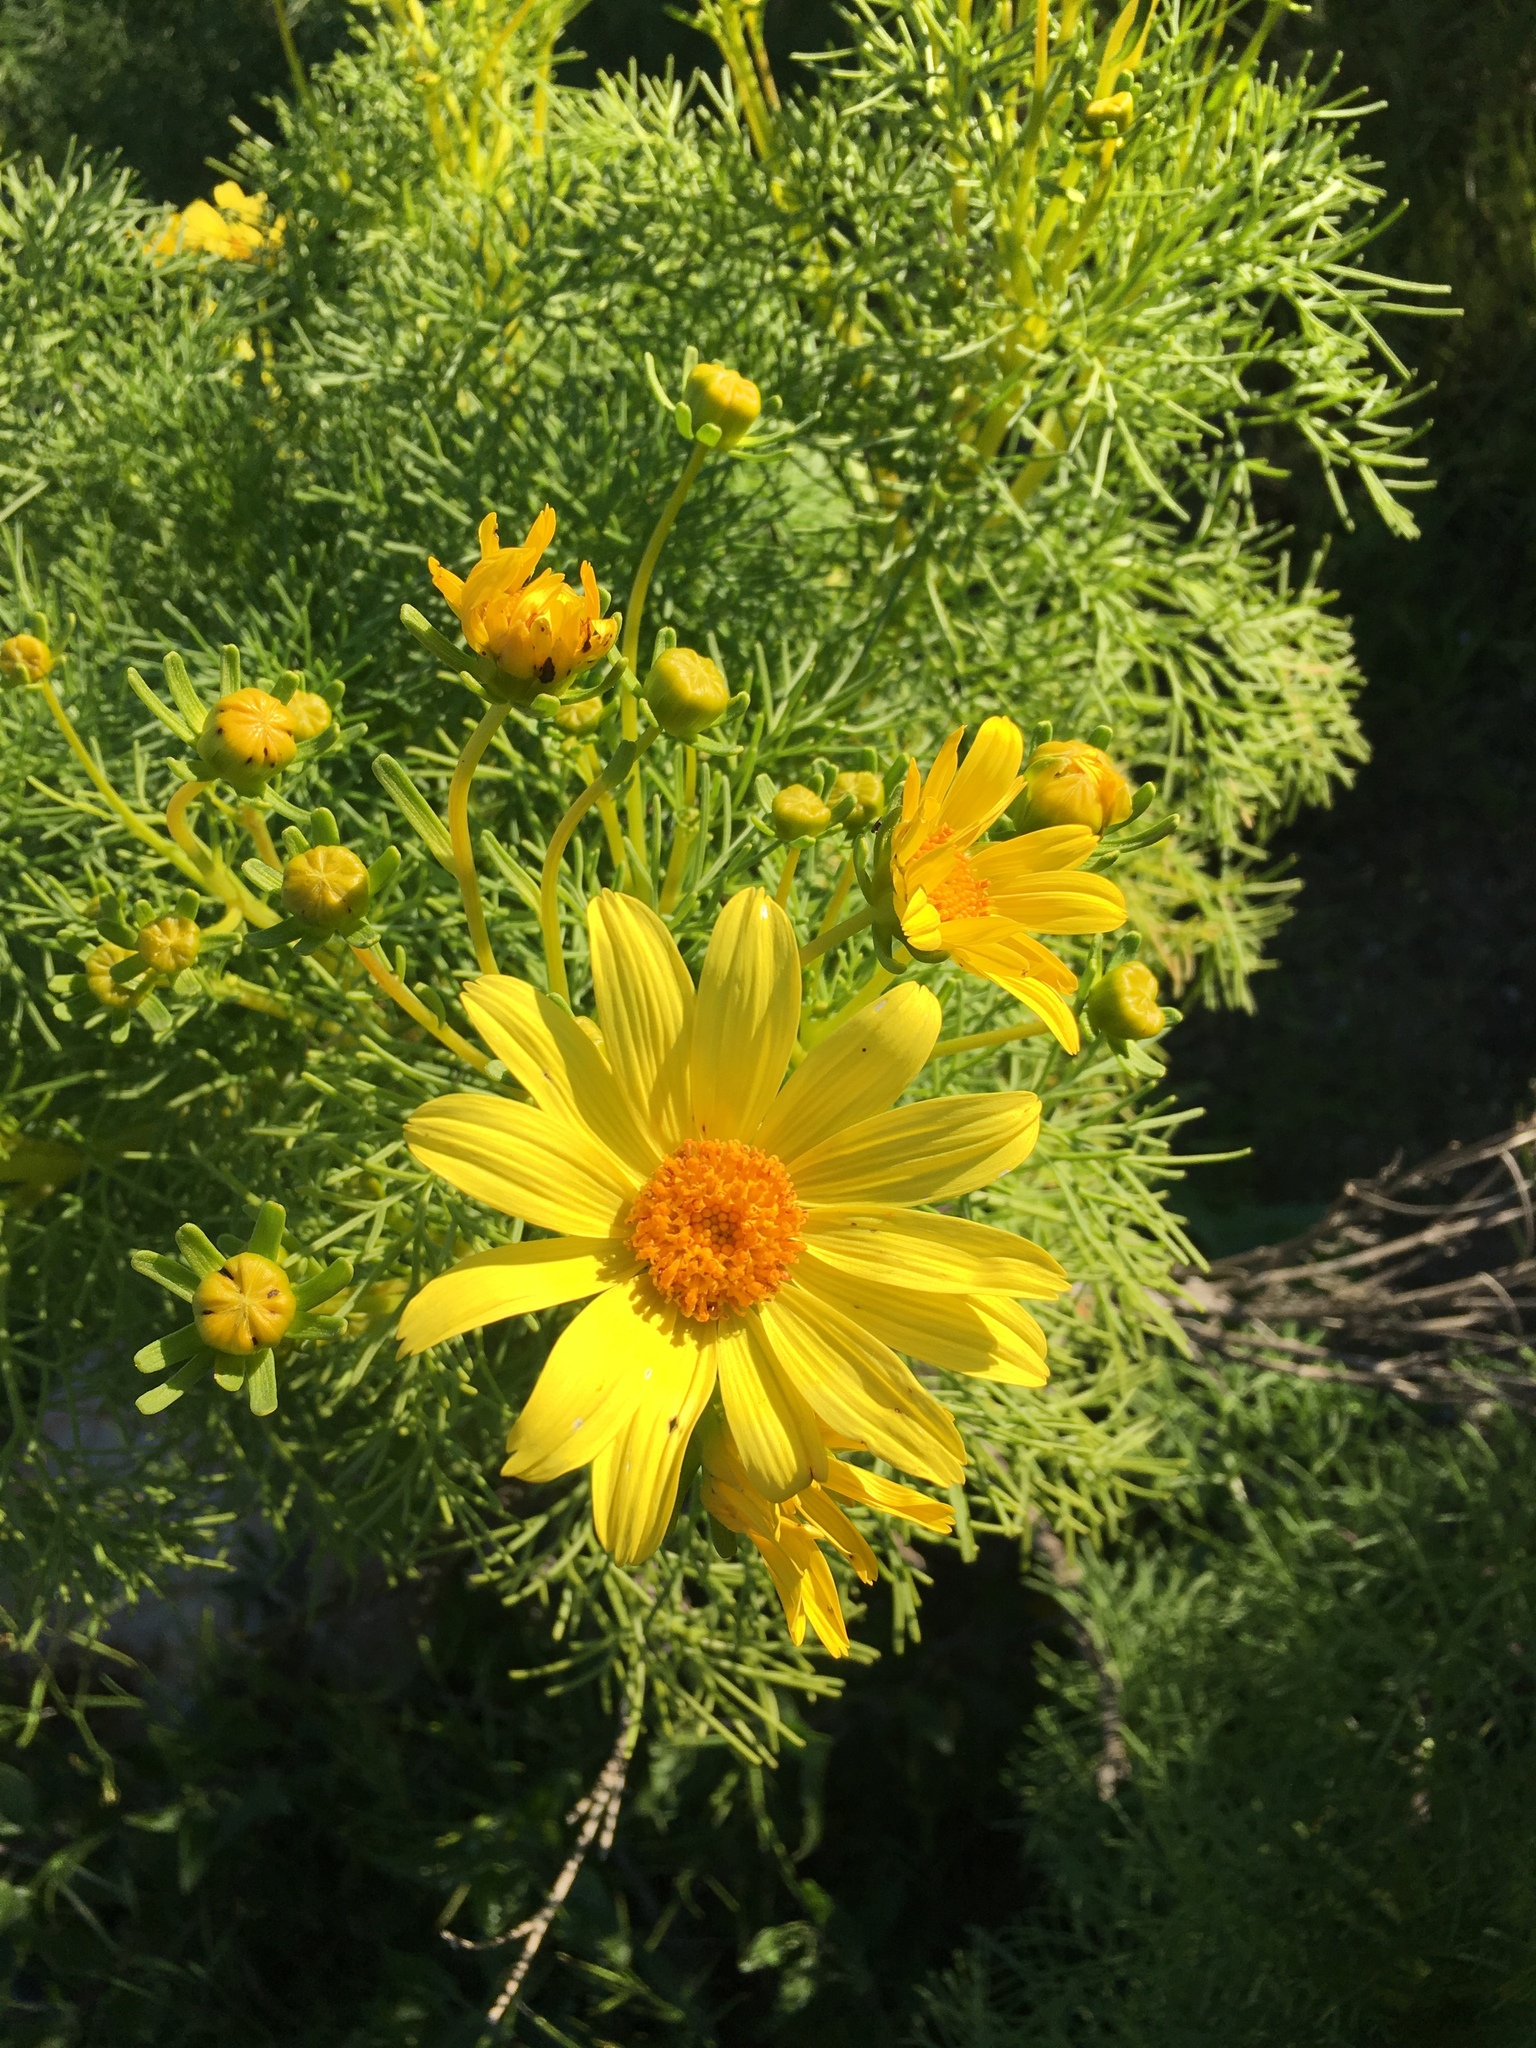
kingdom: Plantae
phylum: Tracheophyta
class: Magnoliopsida
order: Asterales
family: Asteraceae
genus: Coreopsis
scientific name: Coreopsis gigantea
